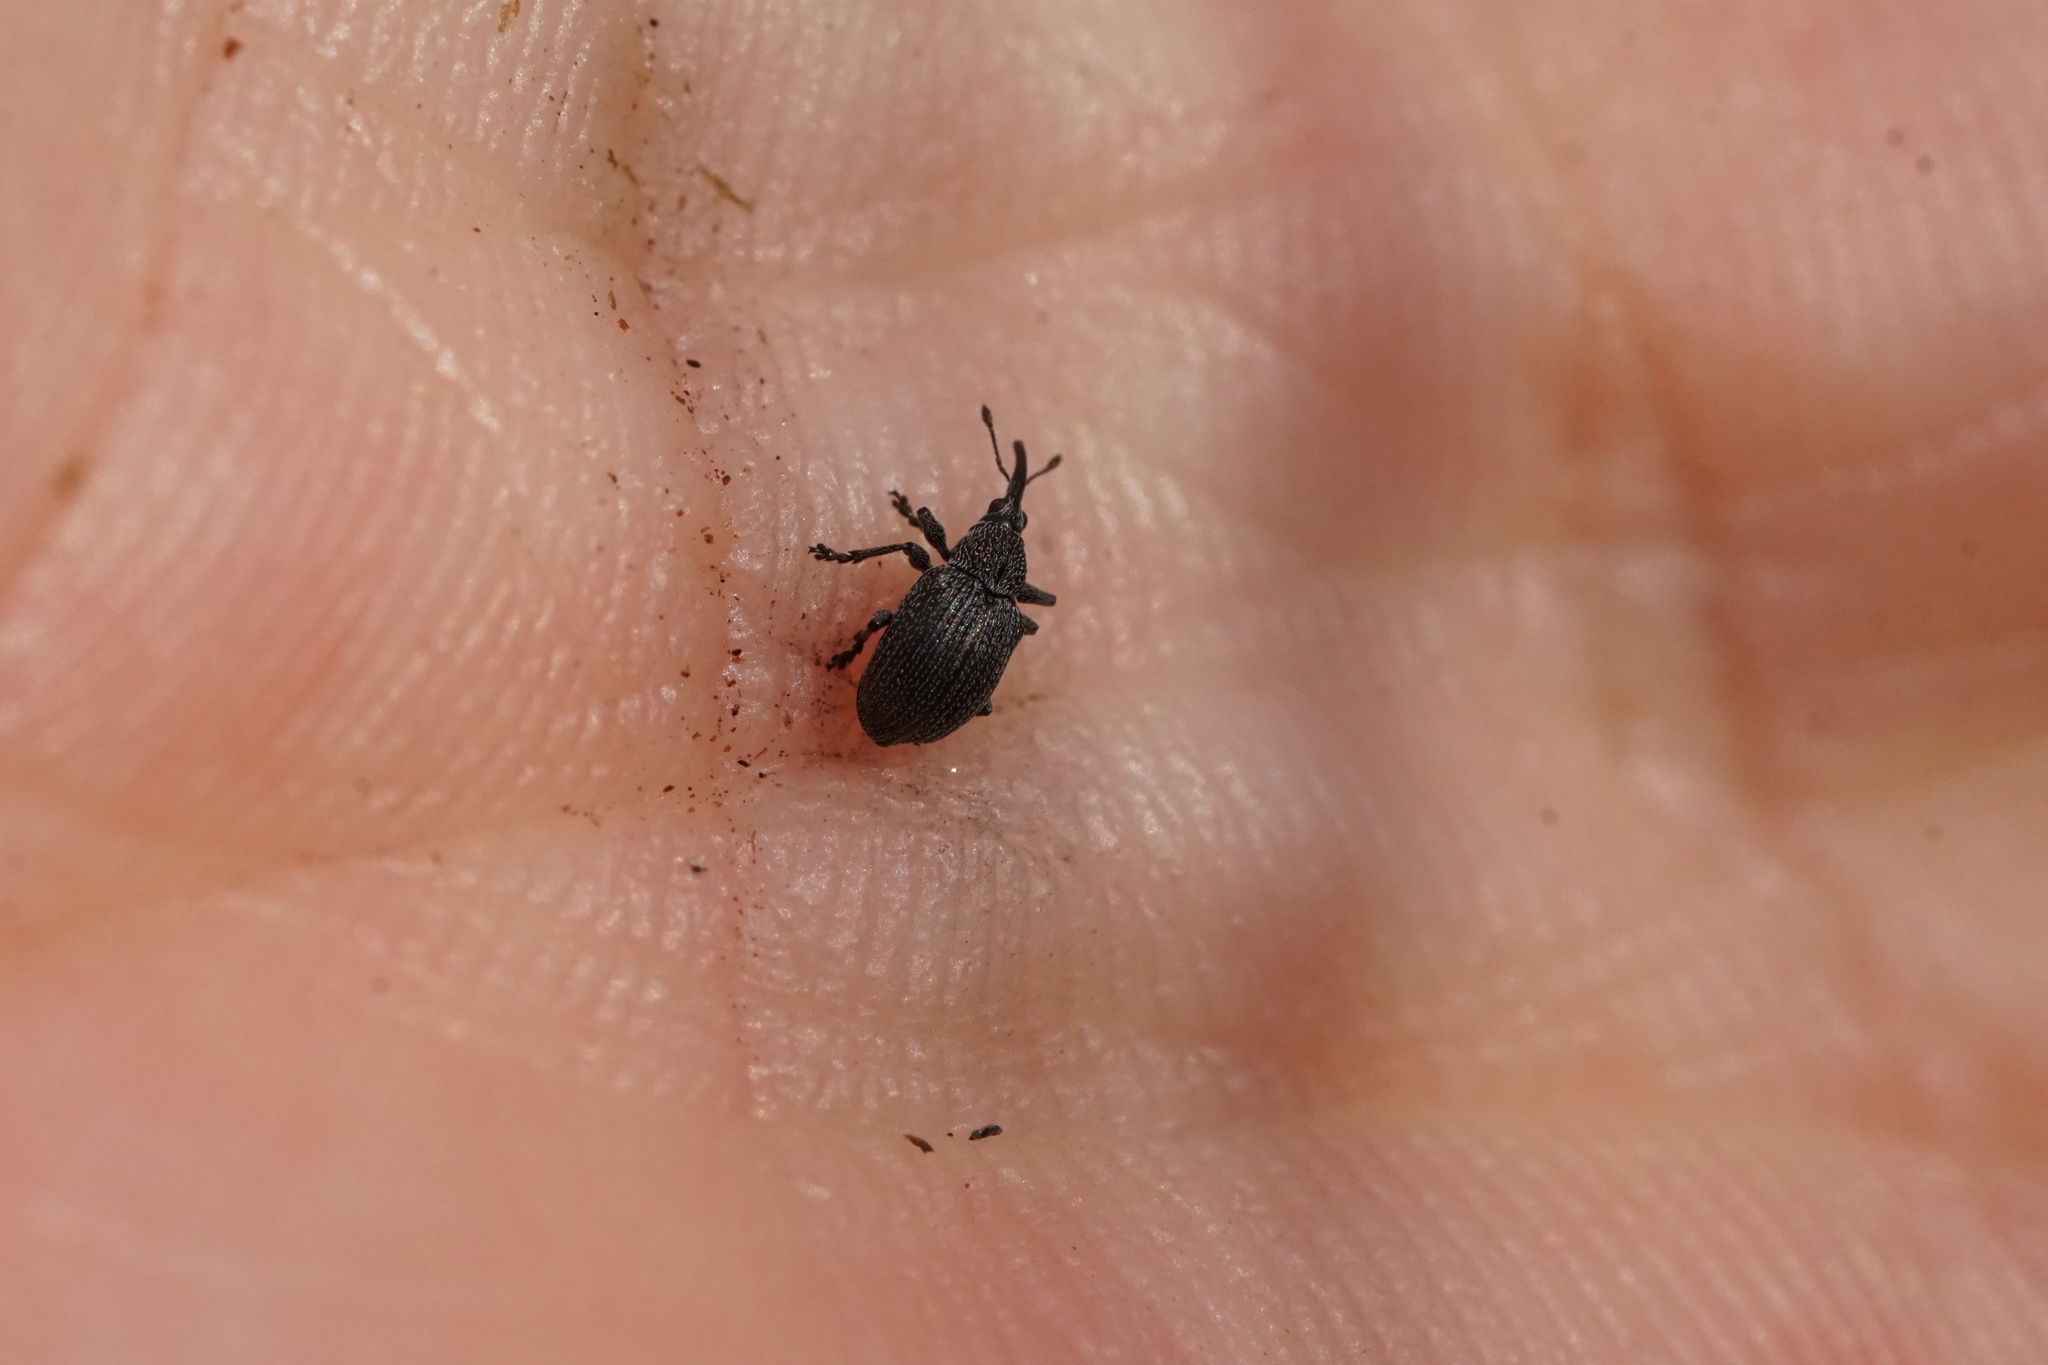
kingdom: Animalia
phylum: Arthropoda
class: Insecta
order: Coleoptera
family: Brentidae
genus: Trichapion
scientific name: Trichapion
